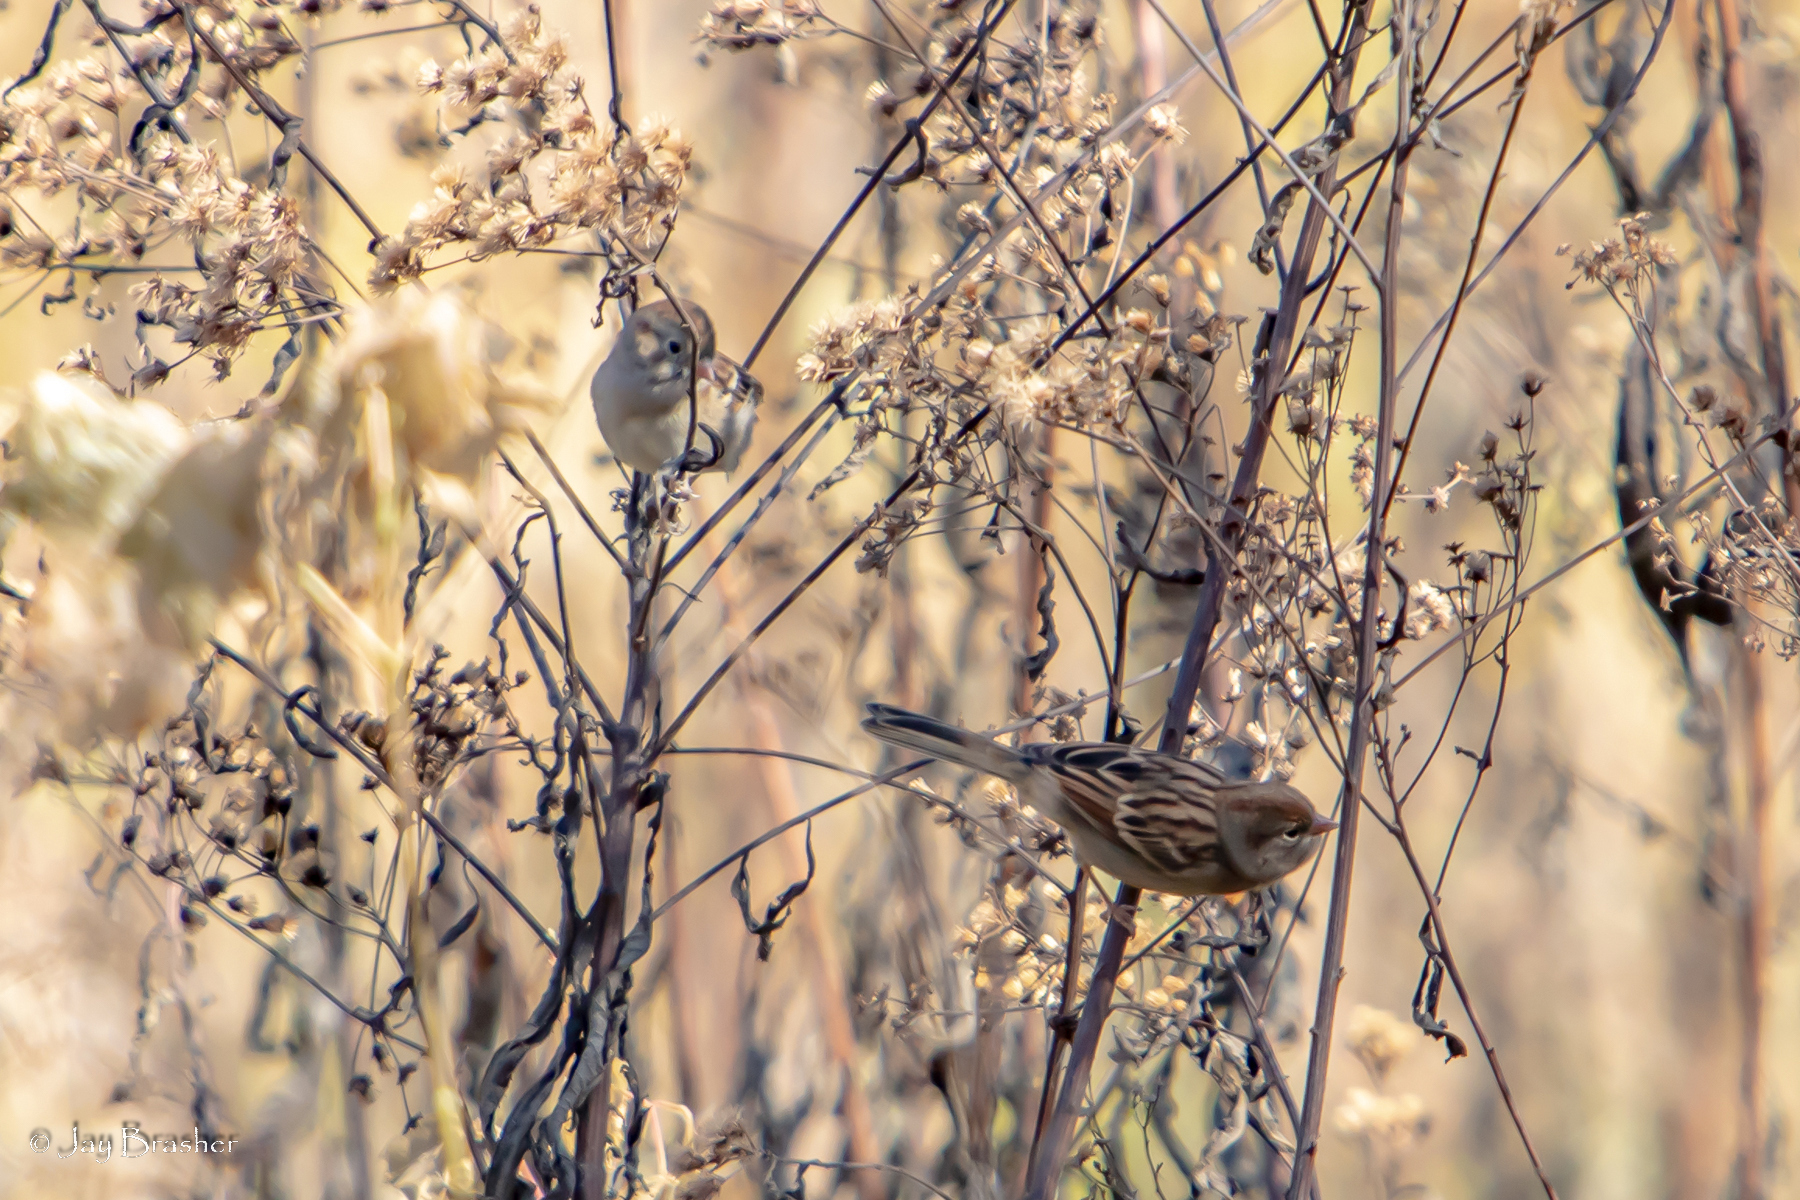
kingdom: Animalia
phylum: Chordata
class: Aves
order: Passeriformes
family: Passerellidae
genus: Spizella
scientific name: Spizella pusilla
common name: Field sparrow
